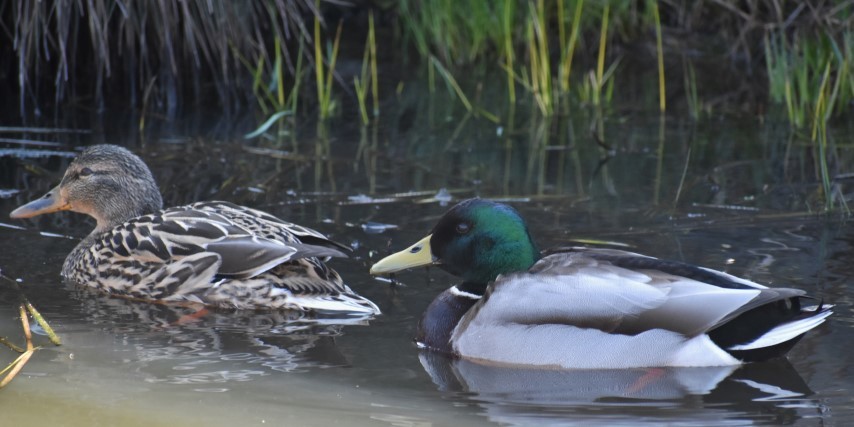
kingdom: Animalia
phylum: Chordata
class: Aves
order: Anseriformes
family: Anatidae
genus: Anas
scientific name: Anas platyrhynchos
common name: Mallard
